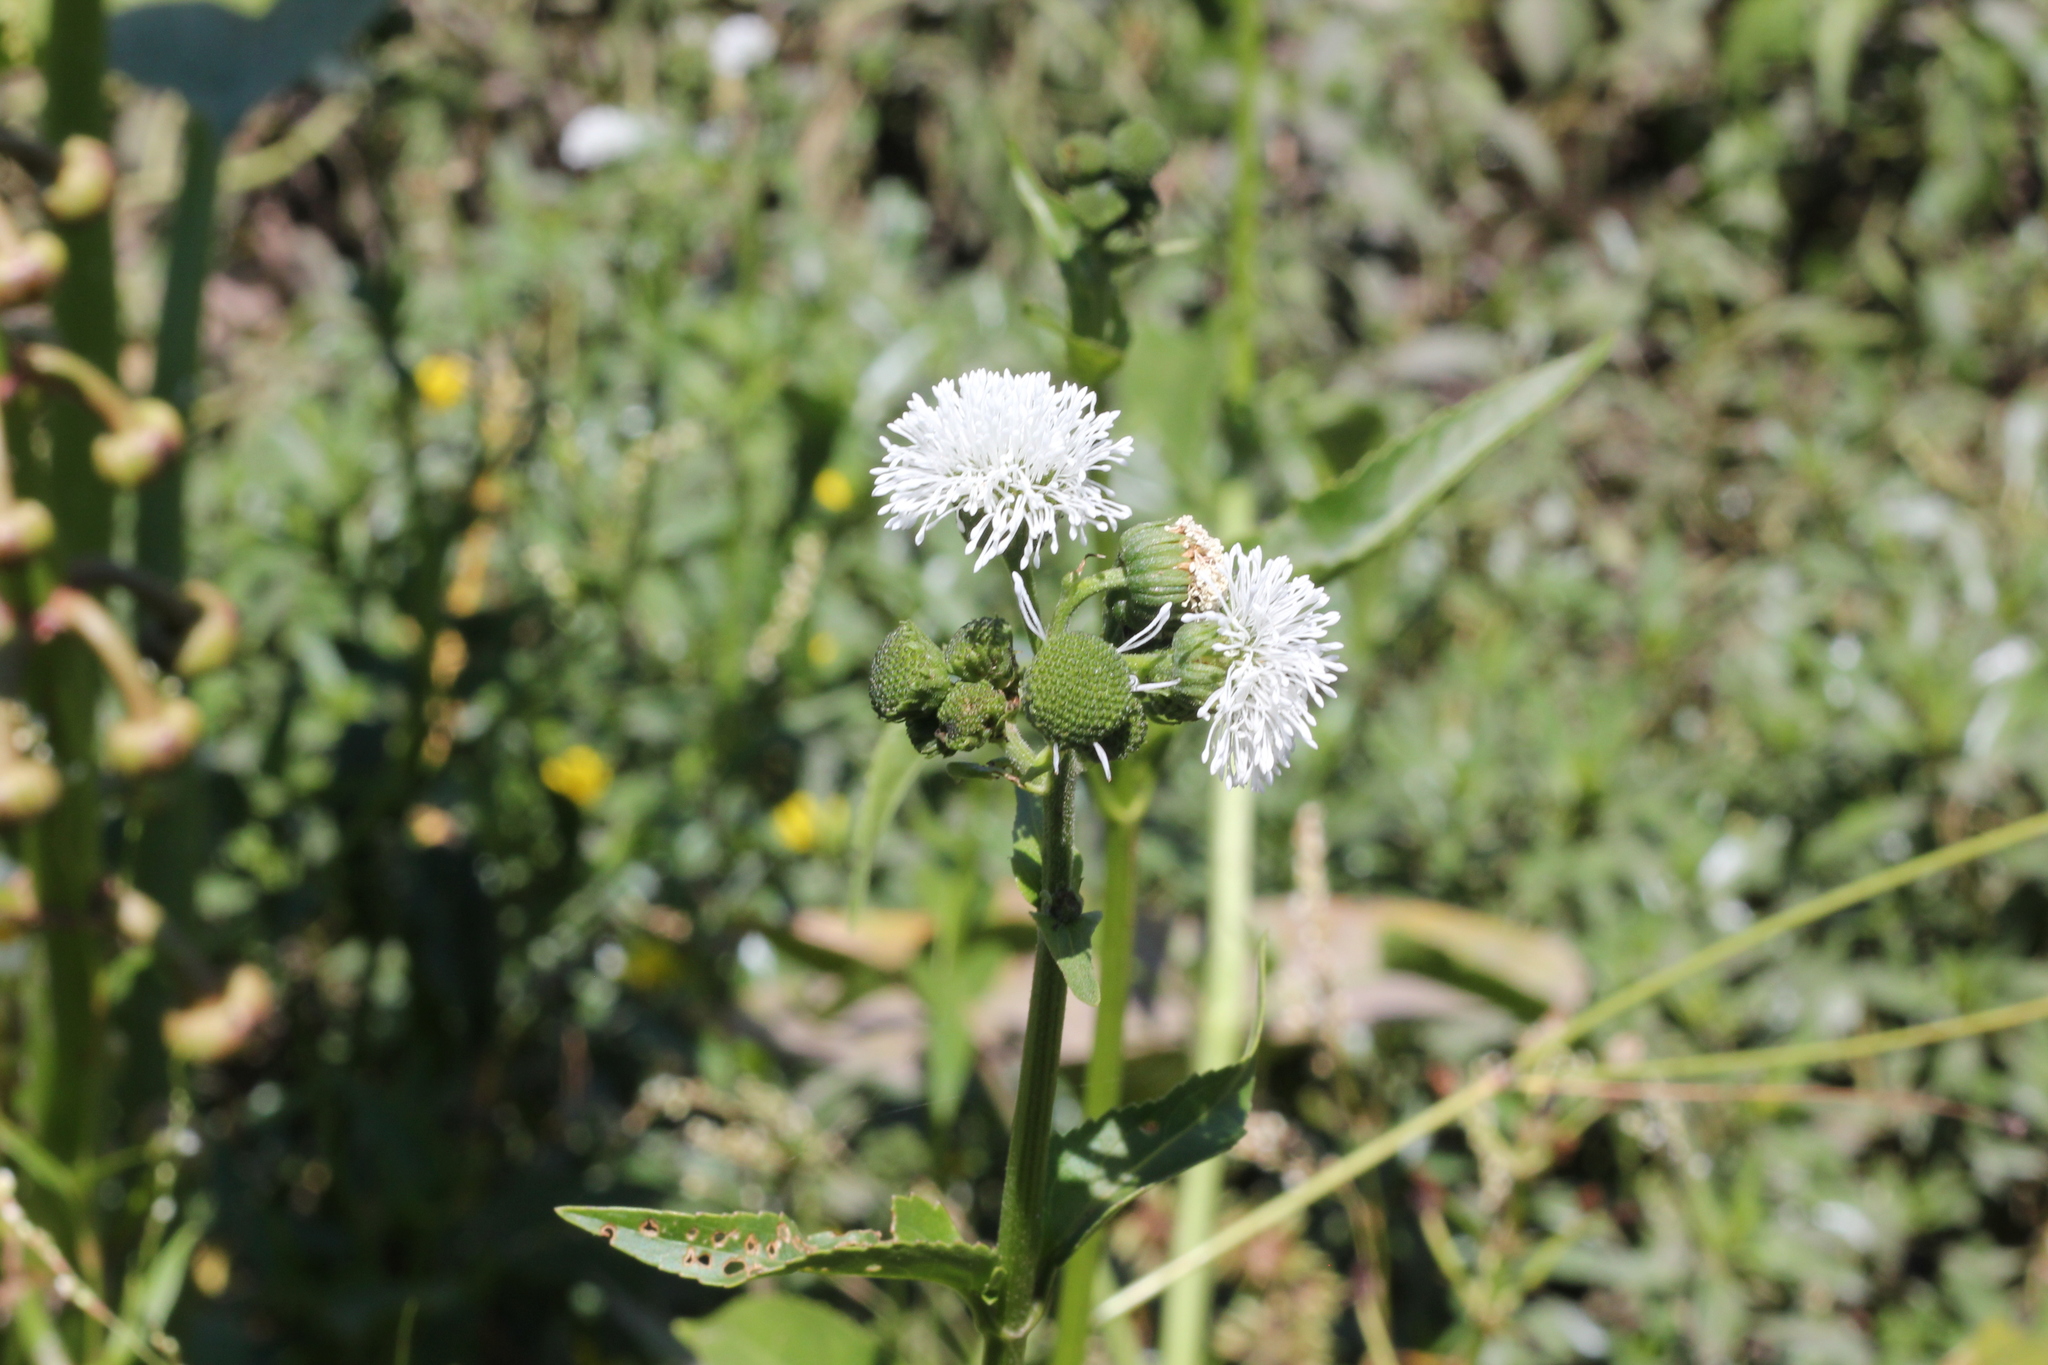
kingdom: Plantae
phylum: Tracheophyta
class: Magnoliopsida
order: Asterales
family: Asteraceae
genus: Gymnocoronis
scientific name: Gymnocoronis spilanthoides
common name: Senegal teaplant
